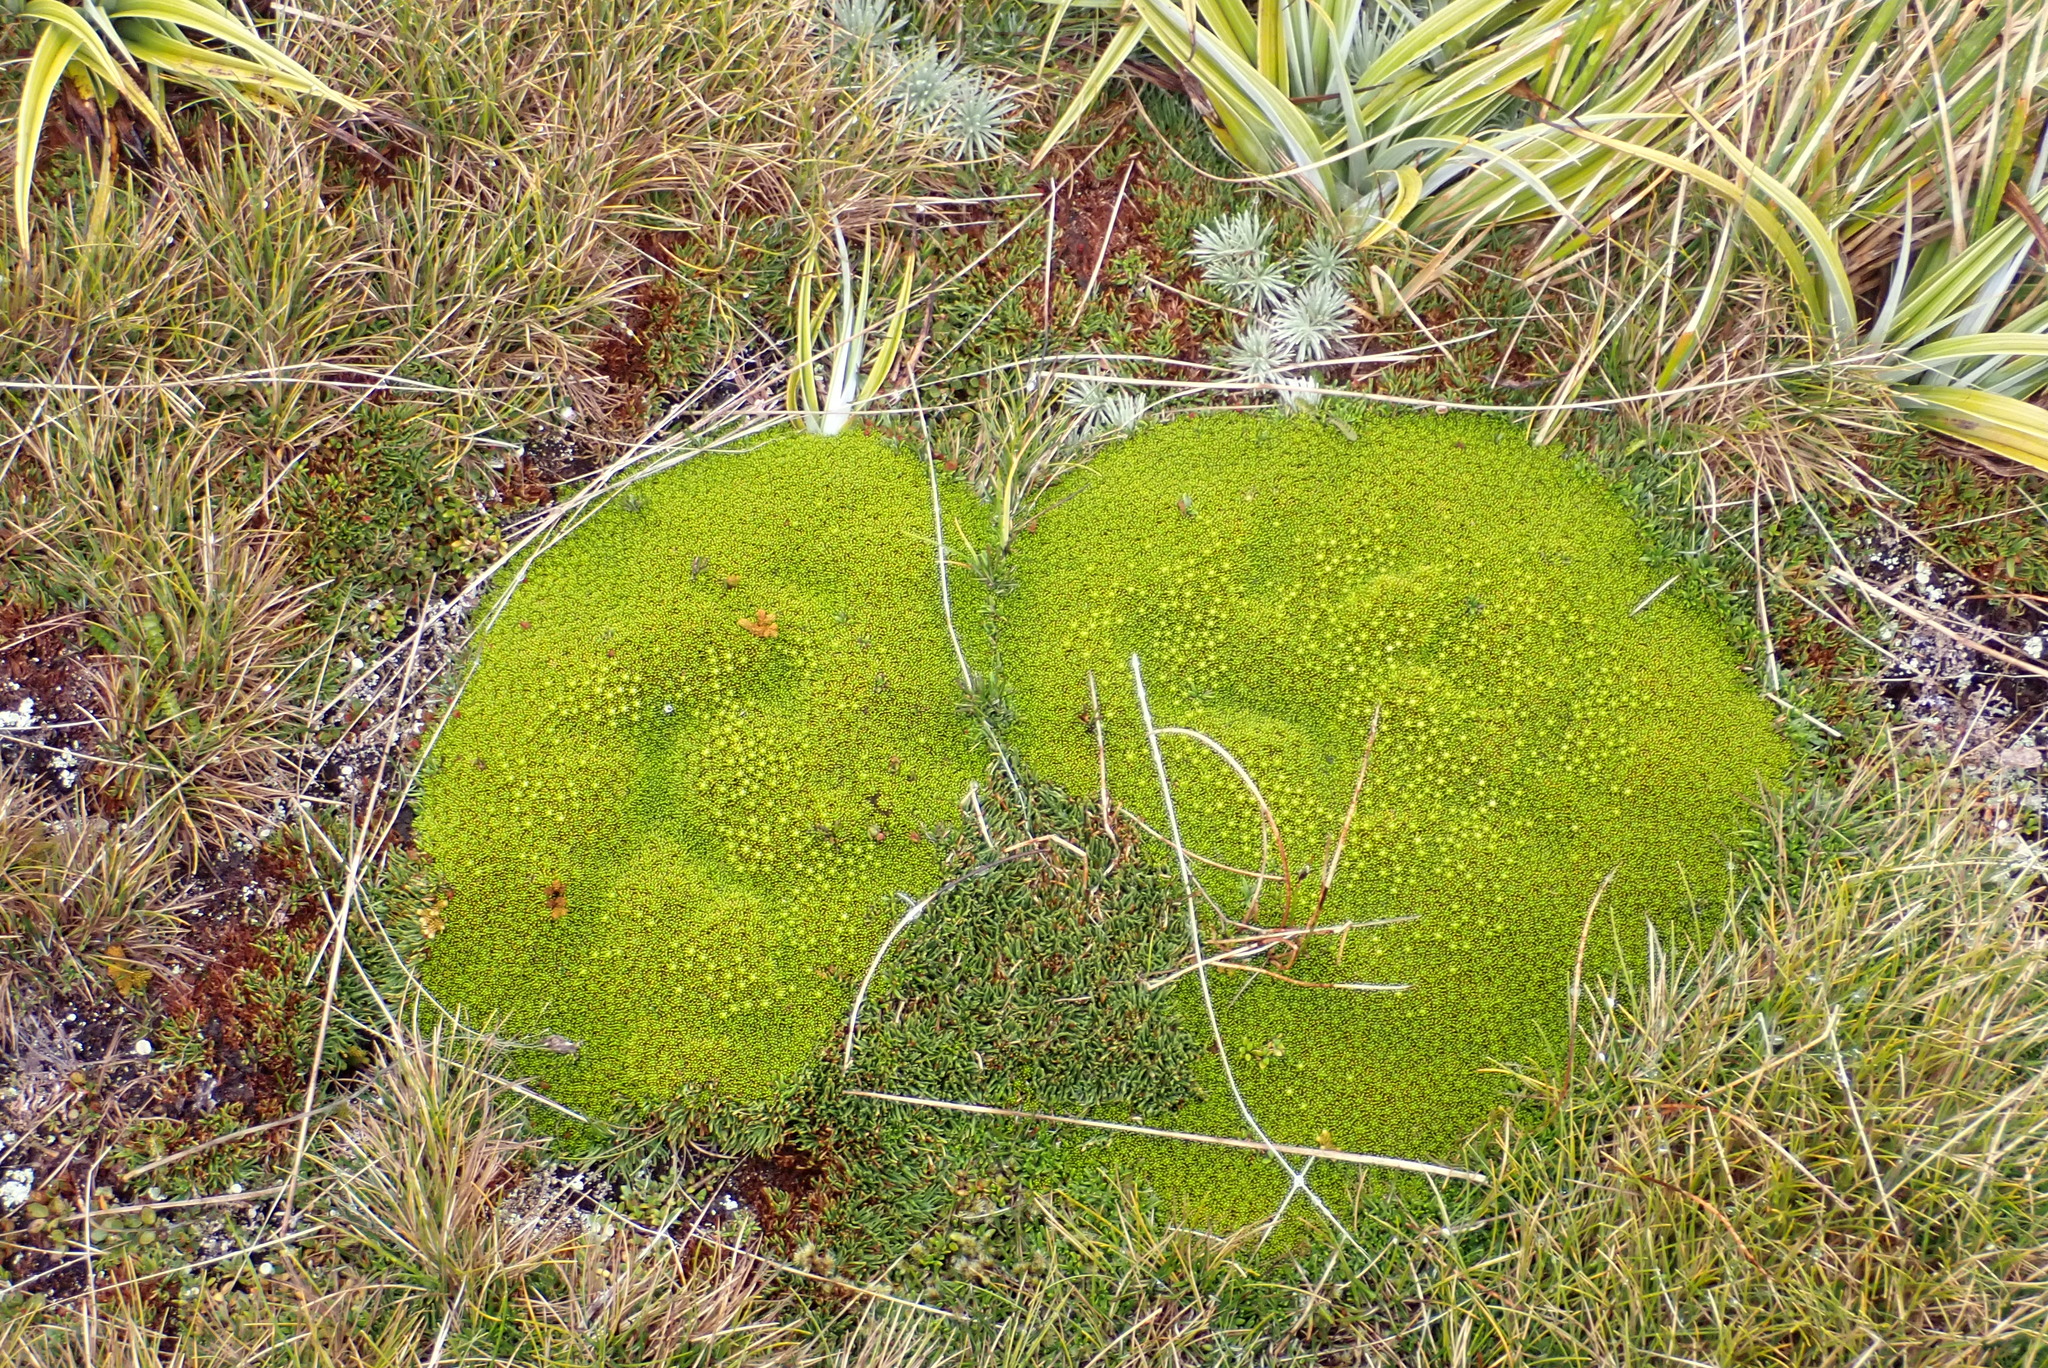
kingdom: Plantae
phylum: Tracheophyta
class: Magnoliopsida
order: Asterales
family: Stylidiaceae
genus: Phyllachne
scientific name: Phyllachne colensoi
